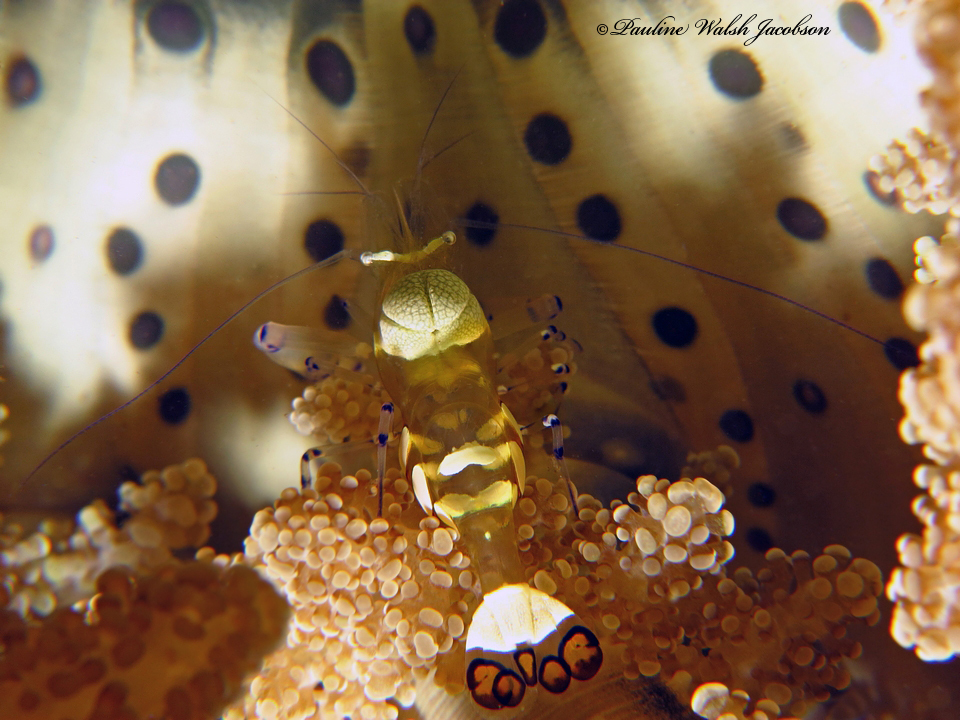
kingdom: Animalia
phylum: Arthropoda
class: Malacostraca
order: Decapoda
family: Palaemonidae
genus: Ancylocaris
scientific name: Ancylocaris brevicarpalis
